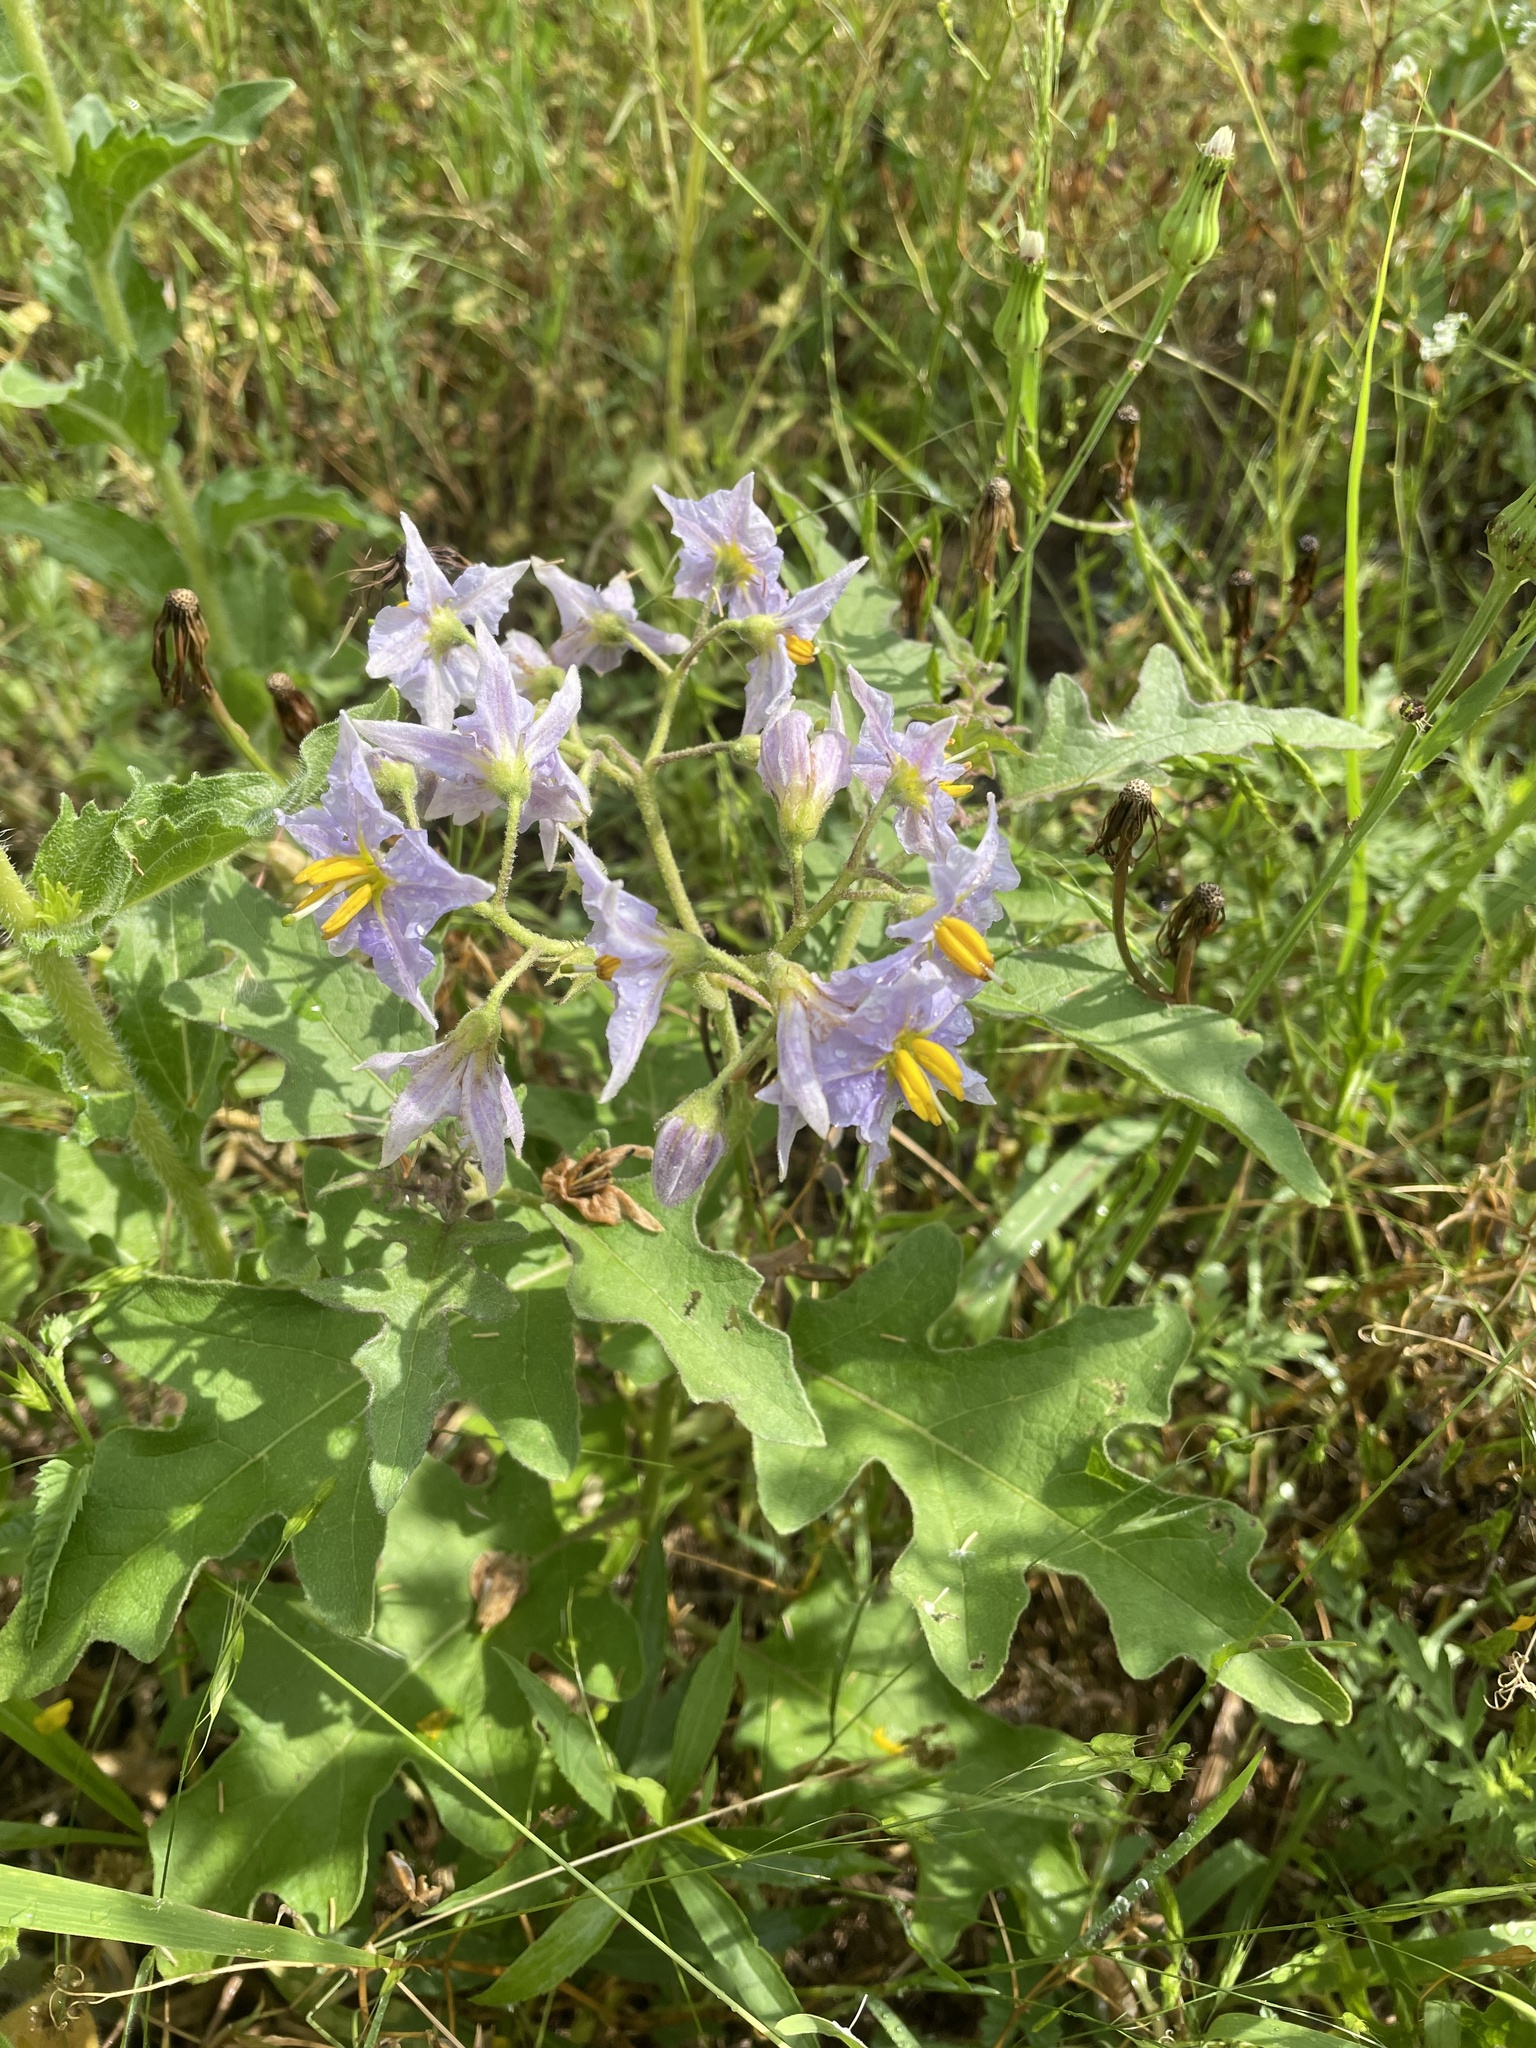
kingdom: Plantae
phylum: Tracheophyta
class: Magnoliopsida
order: Solanales
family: Solanaceae
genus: Solanum
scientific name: Solanum dimidiatum
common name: Carolina horse-nettle
